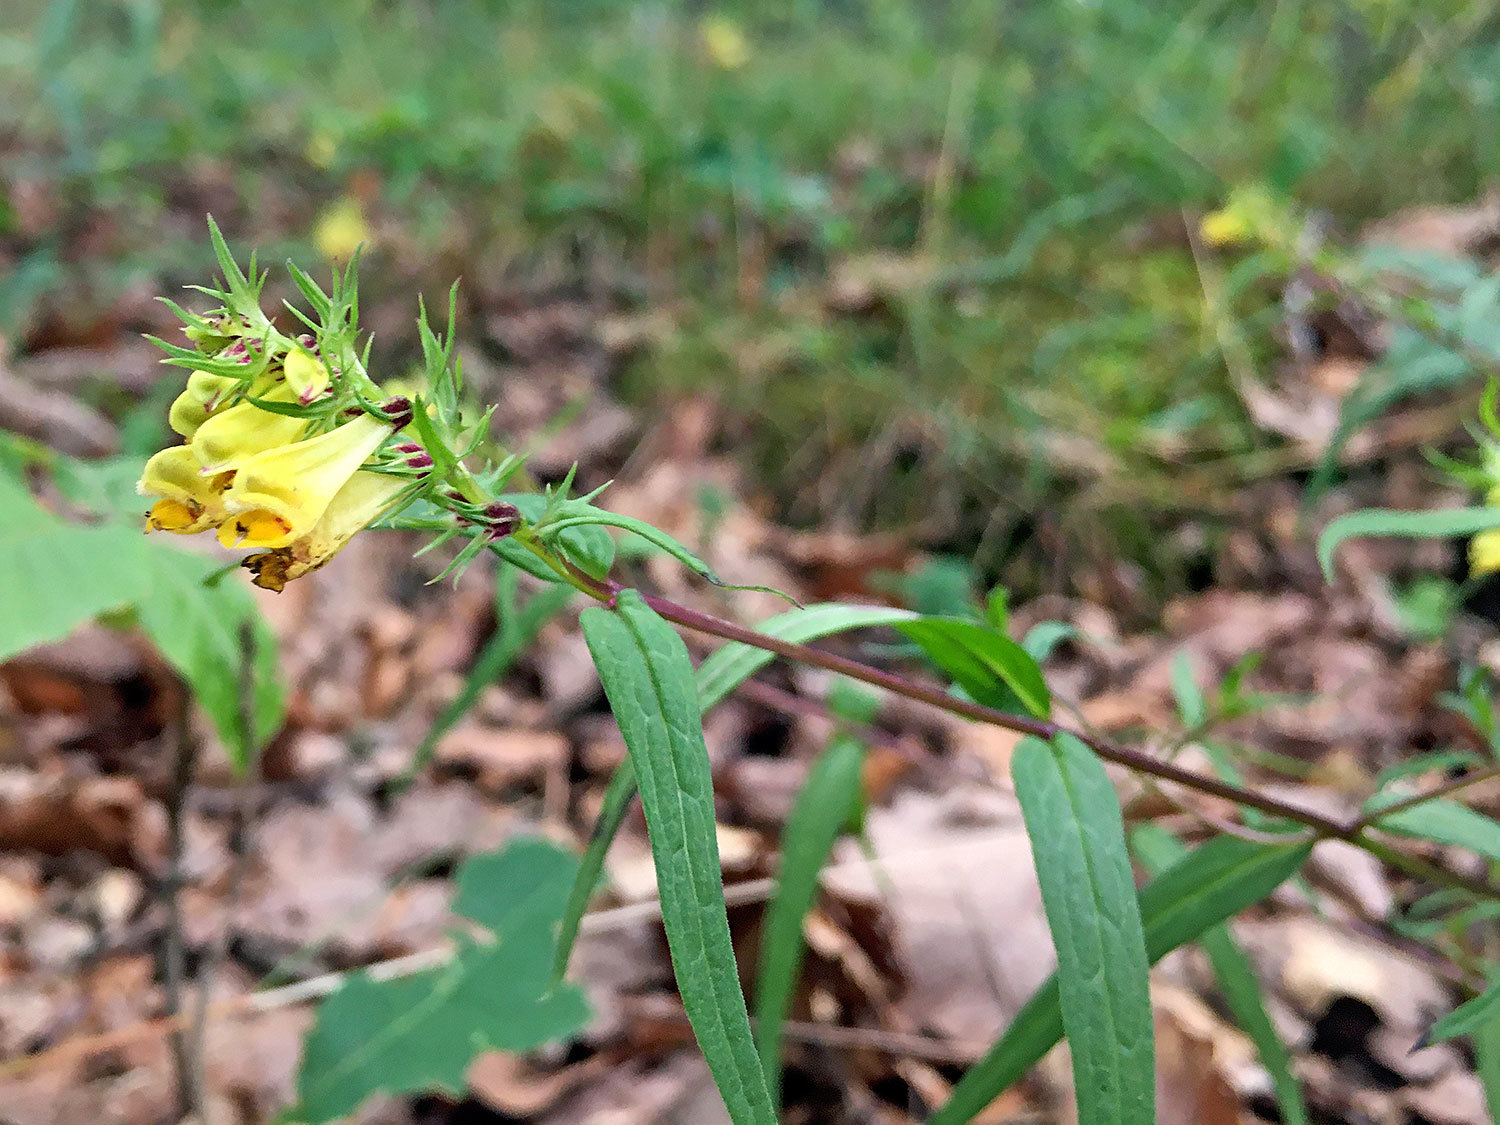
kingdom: Plantae
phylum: Tracheophyta
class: Magnoliopsida
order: Lamiales
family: Orobanchaceae
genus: Melampyrum
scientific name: Melampyrum pratense
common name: Common cow-wheat
